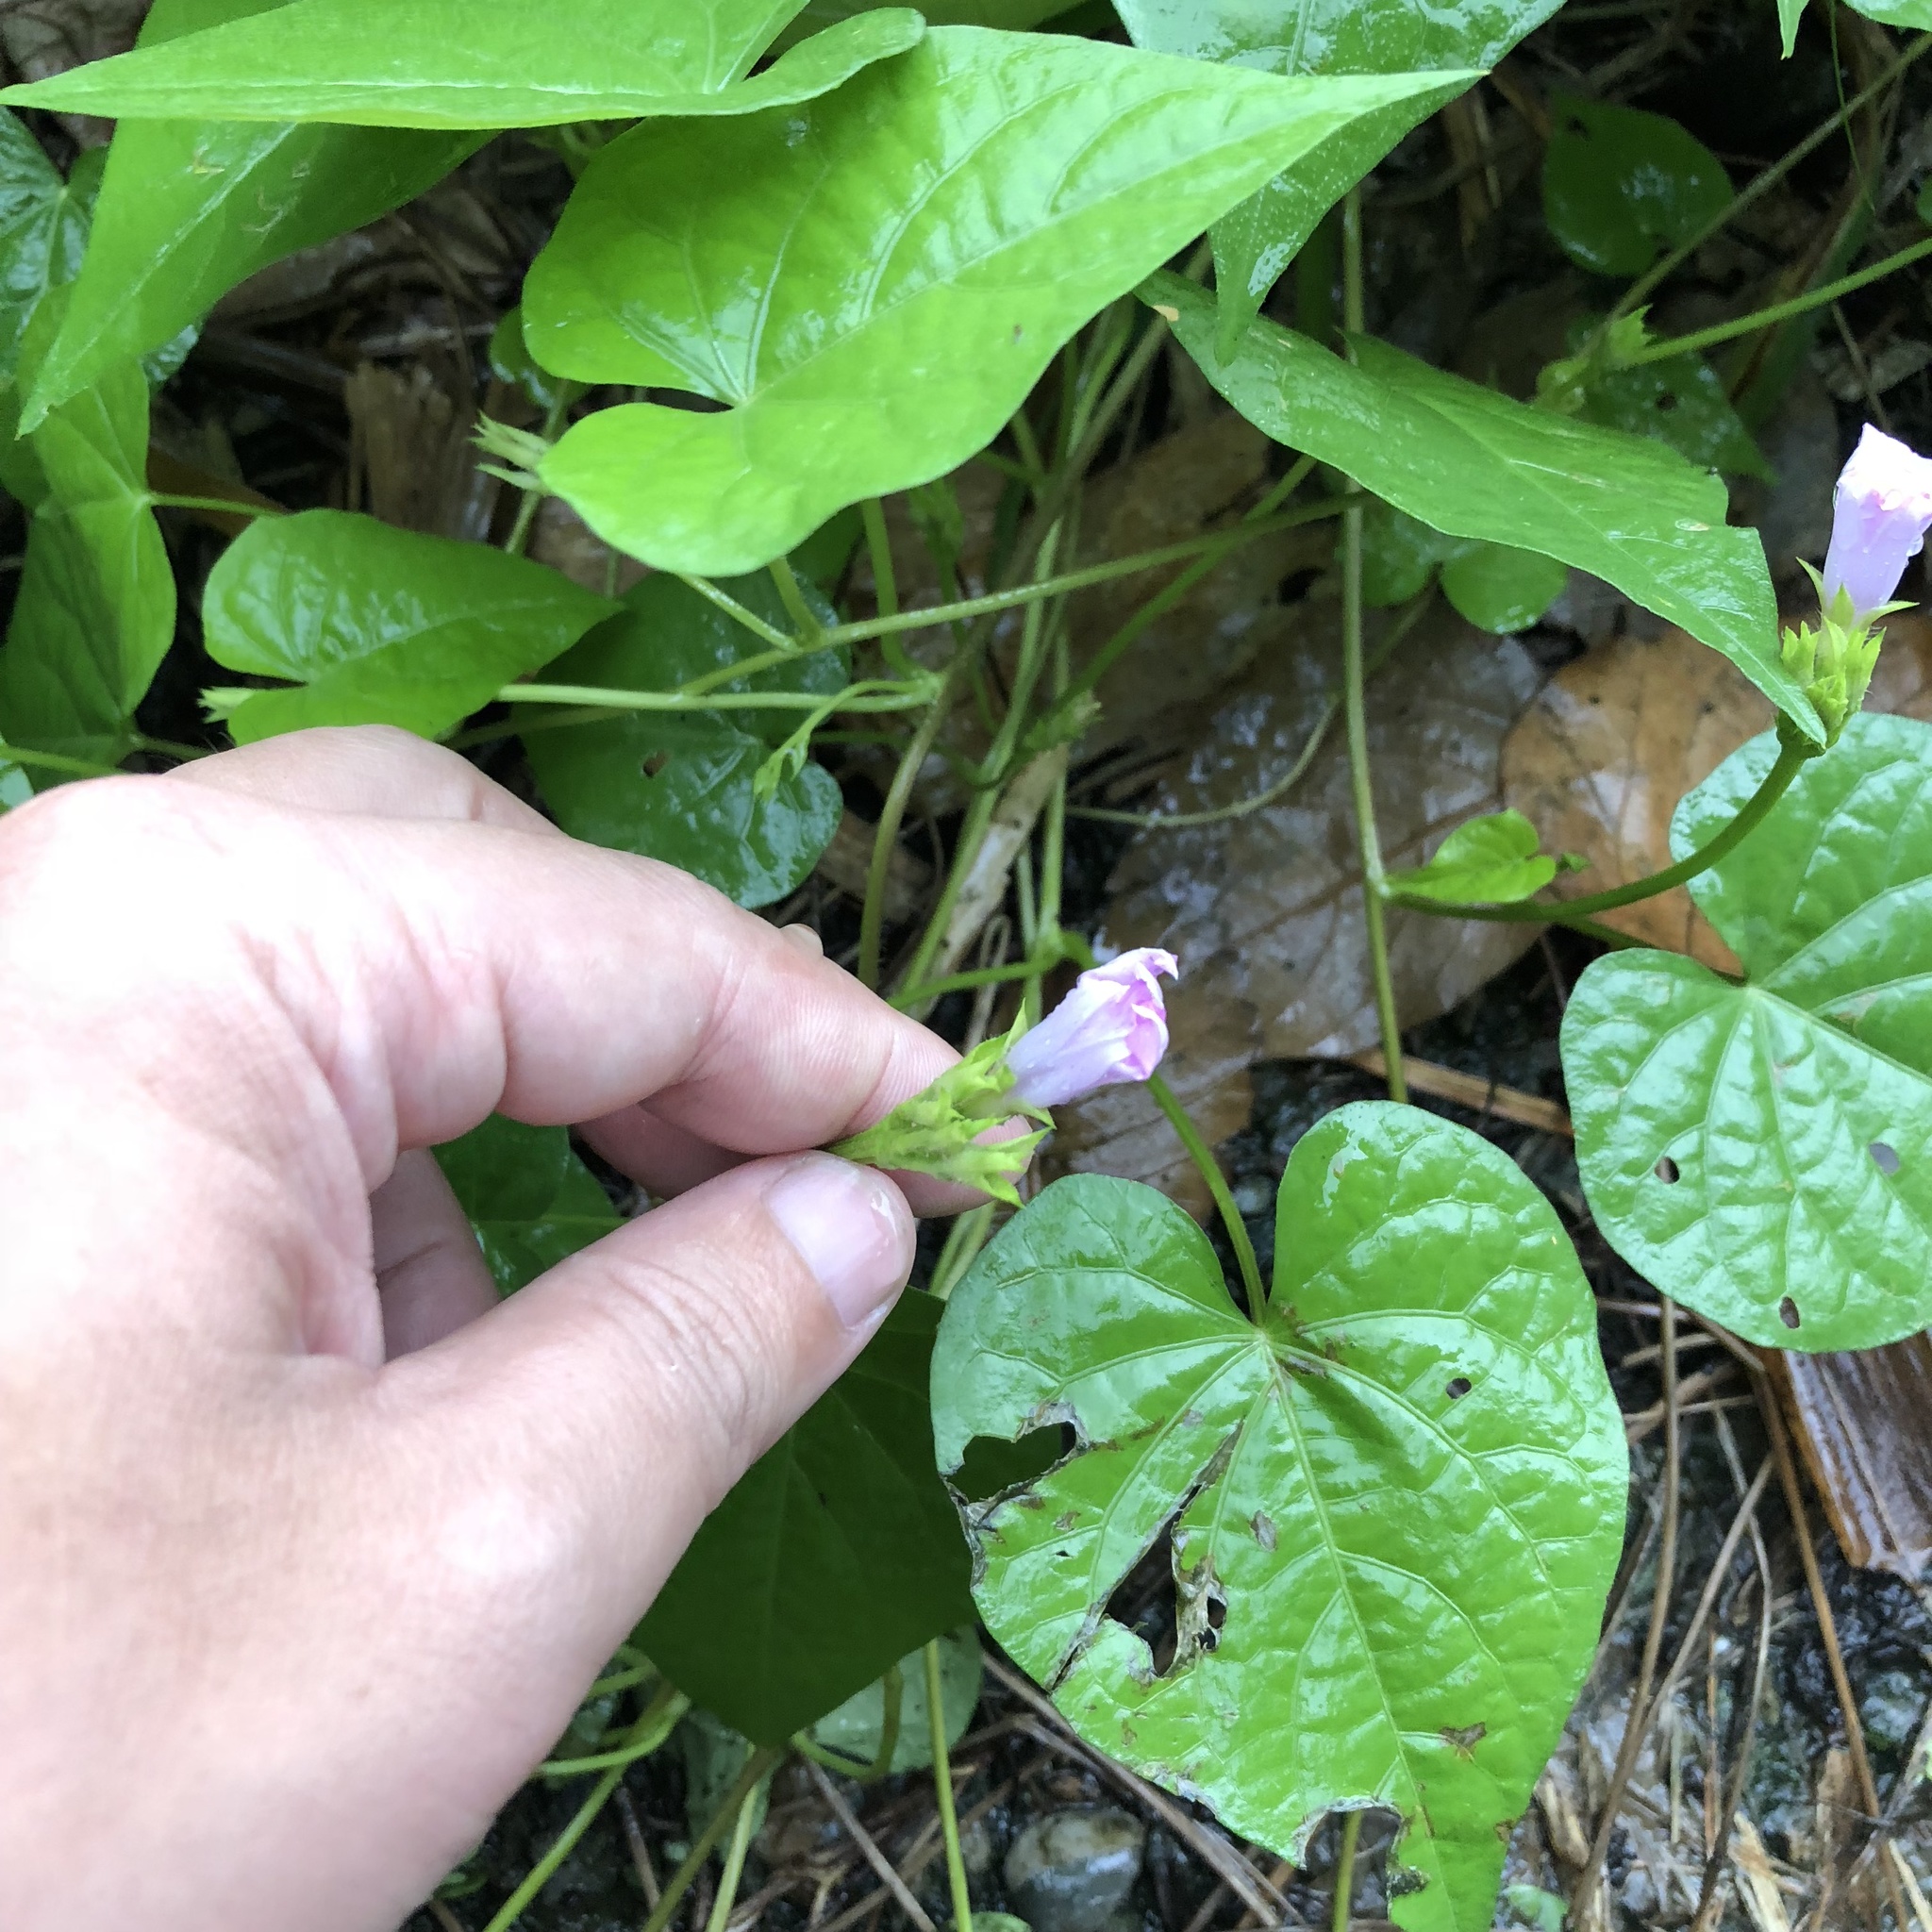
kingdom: Plantae
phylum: Tracheophyta
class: Magnoliopsida
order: Solanales
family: Convolvulaceae
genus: Ipomoea
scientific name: Ipomoea triloba
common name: Little-bell
